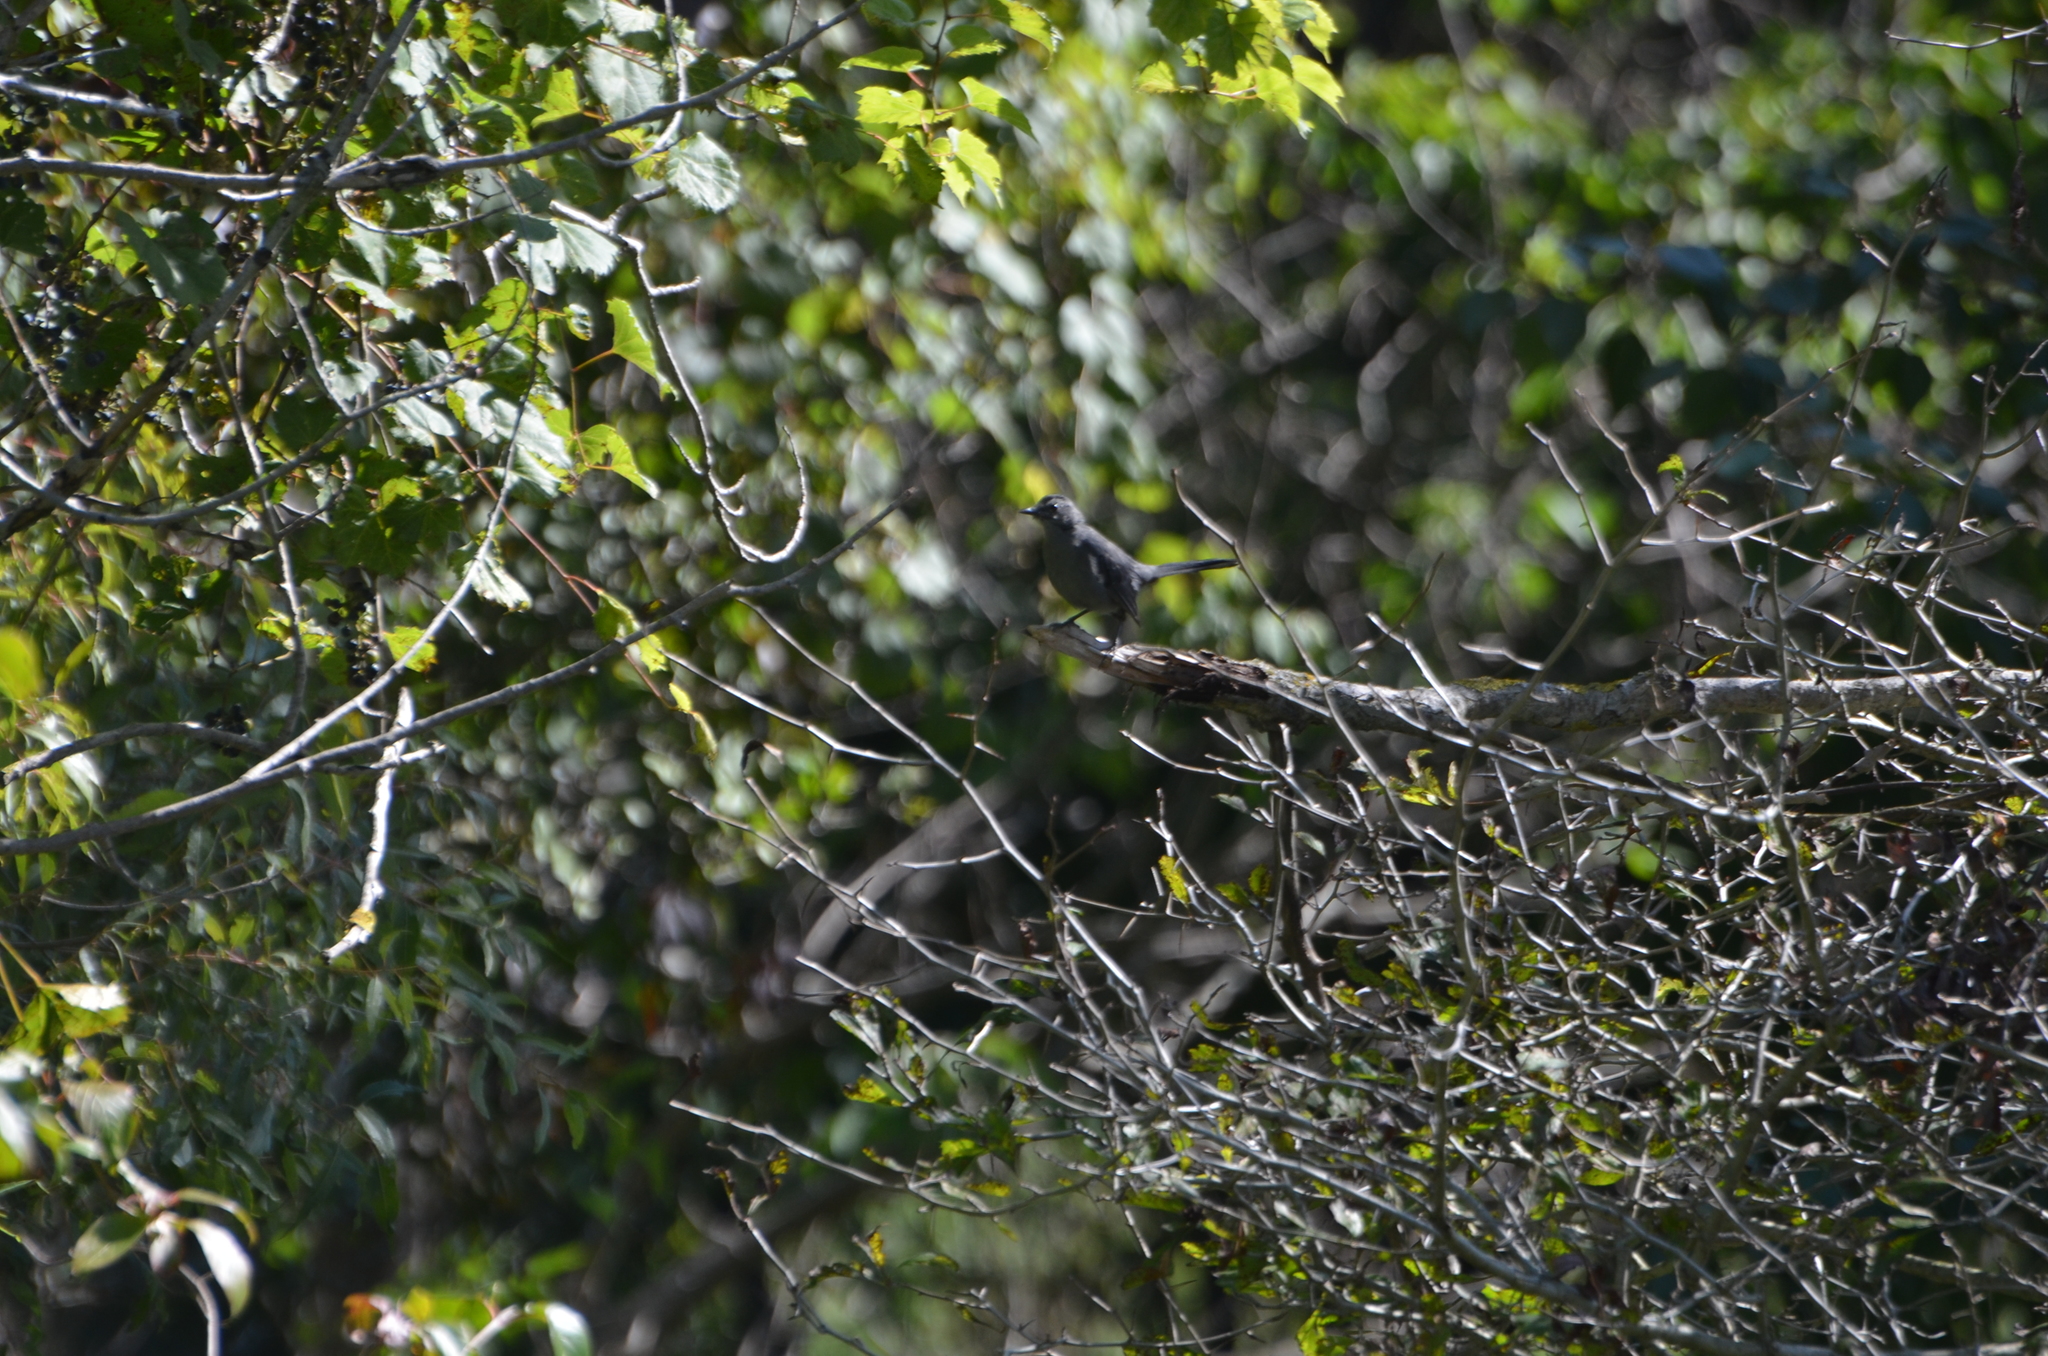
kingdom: Animalia
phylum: Chordata
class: Aves
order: Passeriformes
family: Mimidae
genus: Dumetella
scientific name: Dumetella carolinensis
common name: Gray catbird
